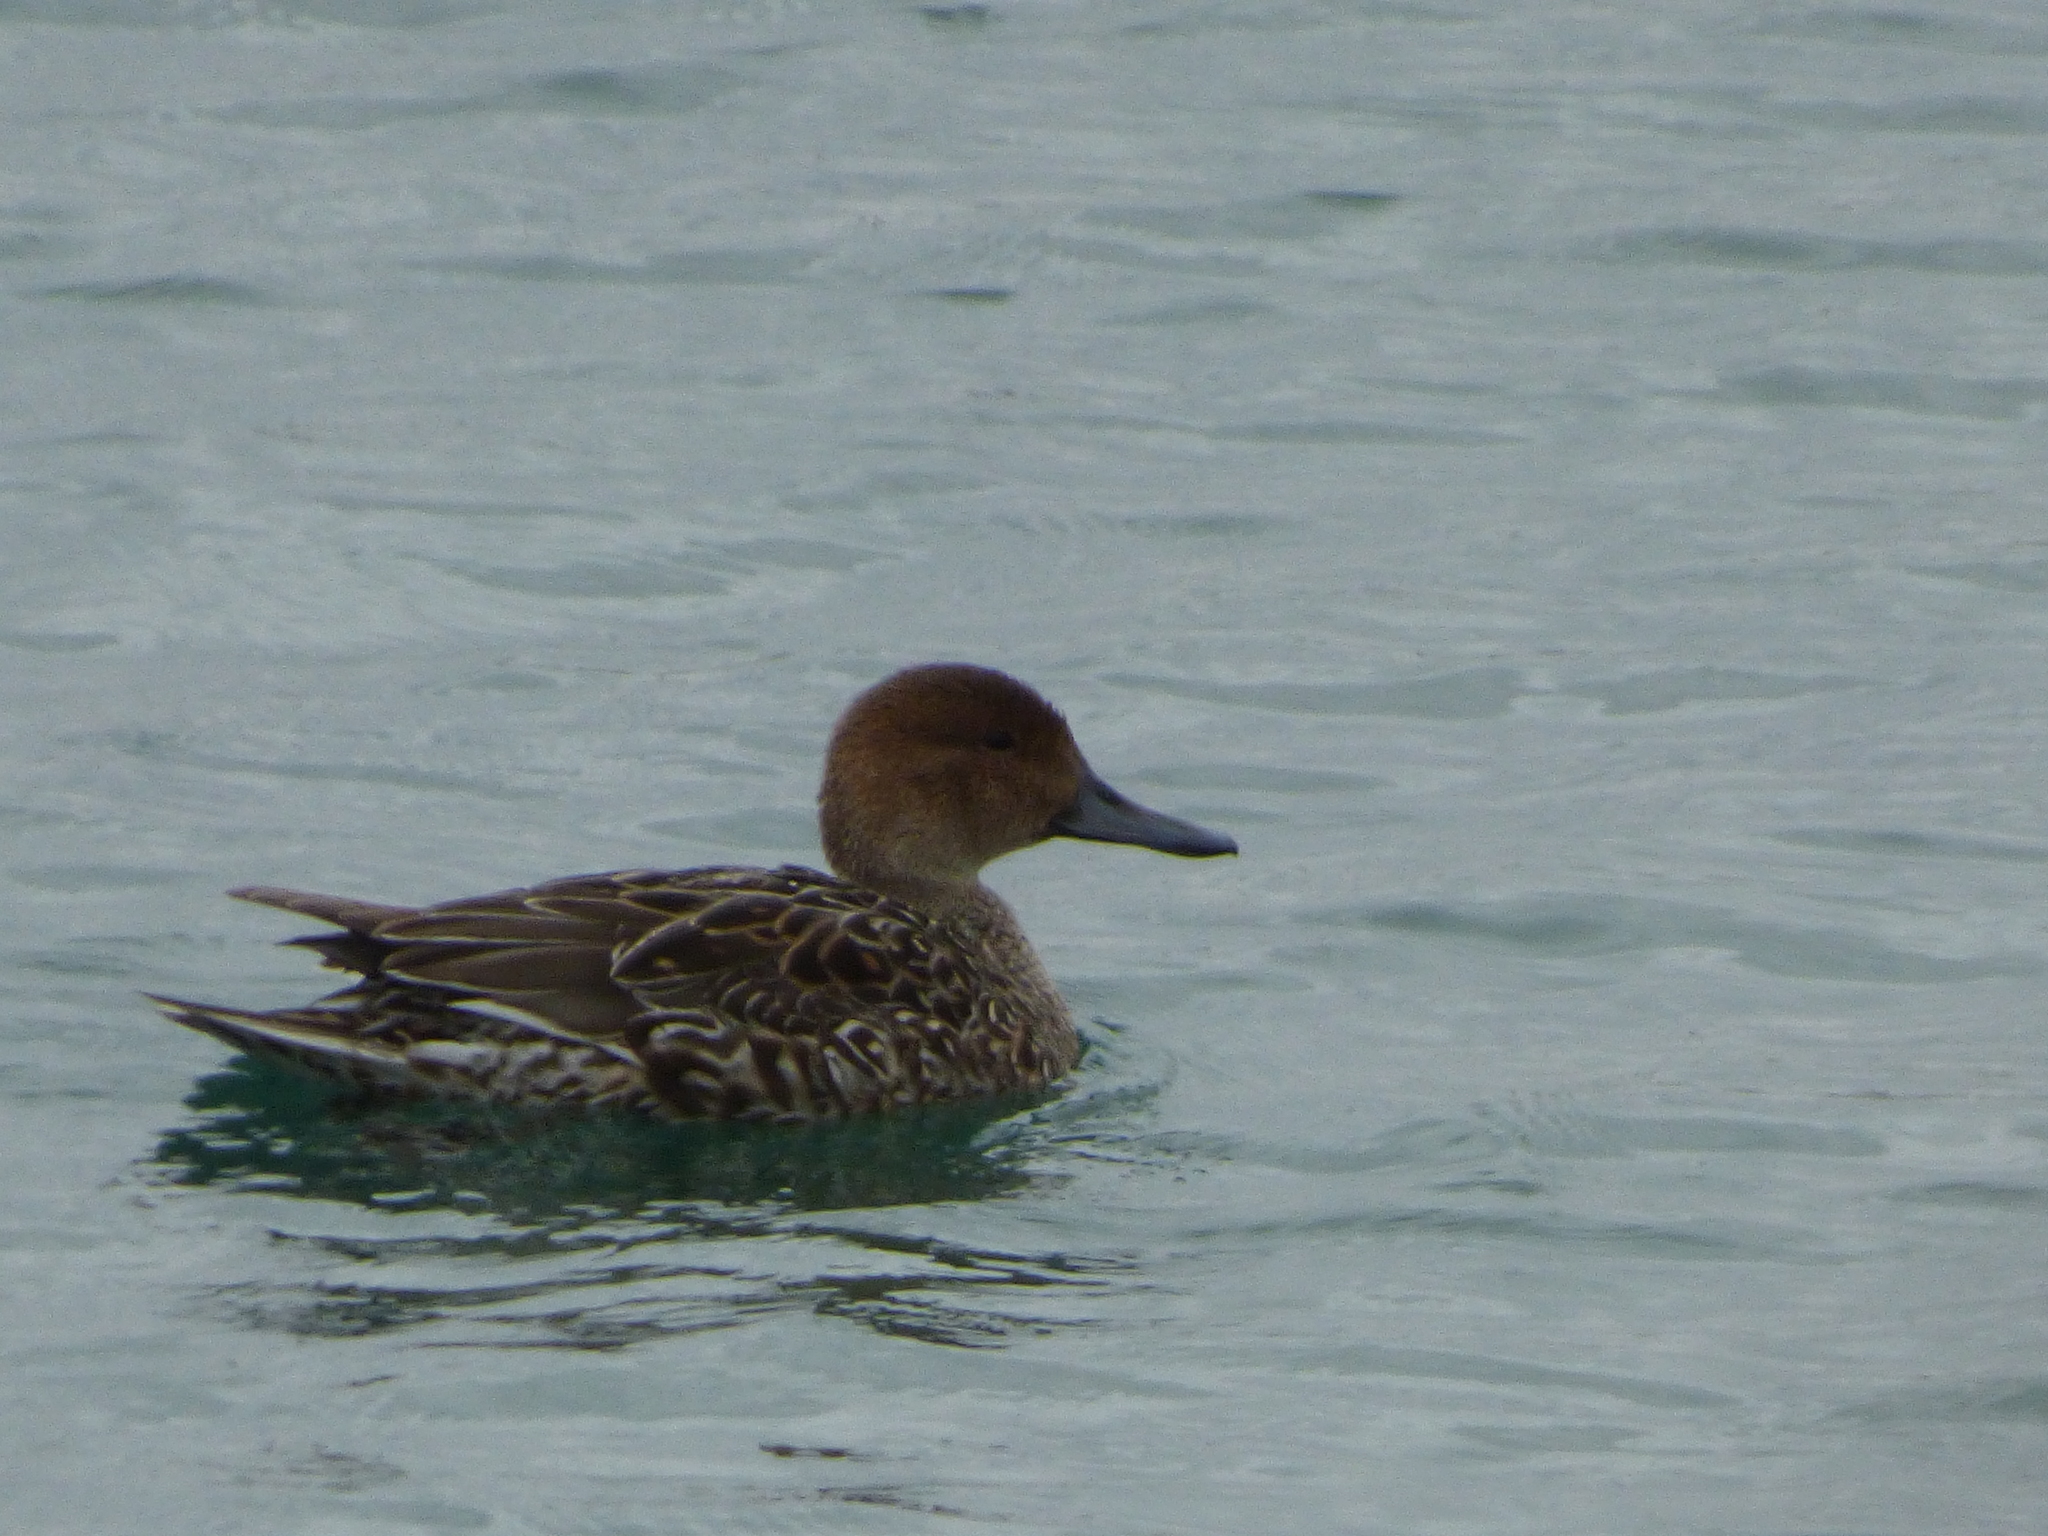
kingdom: Animalia
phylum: Chordata
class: Aves
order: Anseriformes
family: Anatidae
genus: Anas
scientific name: Anas acuta
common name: Northern pintail
